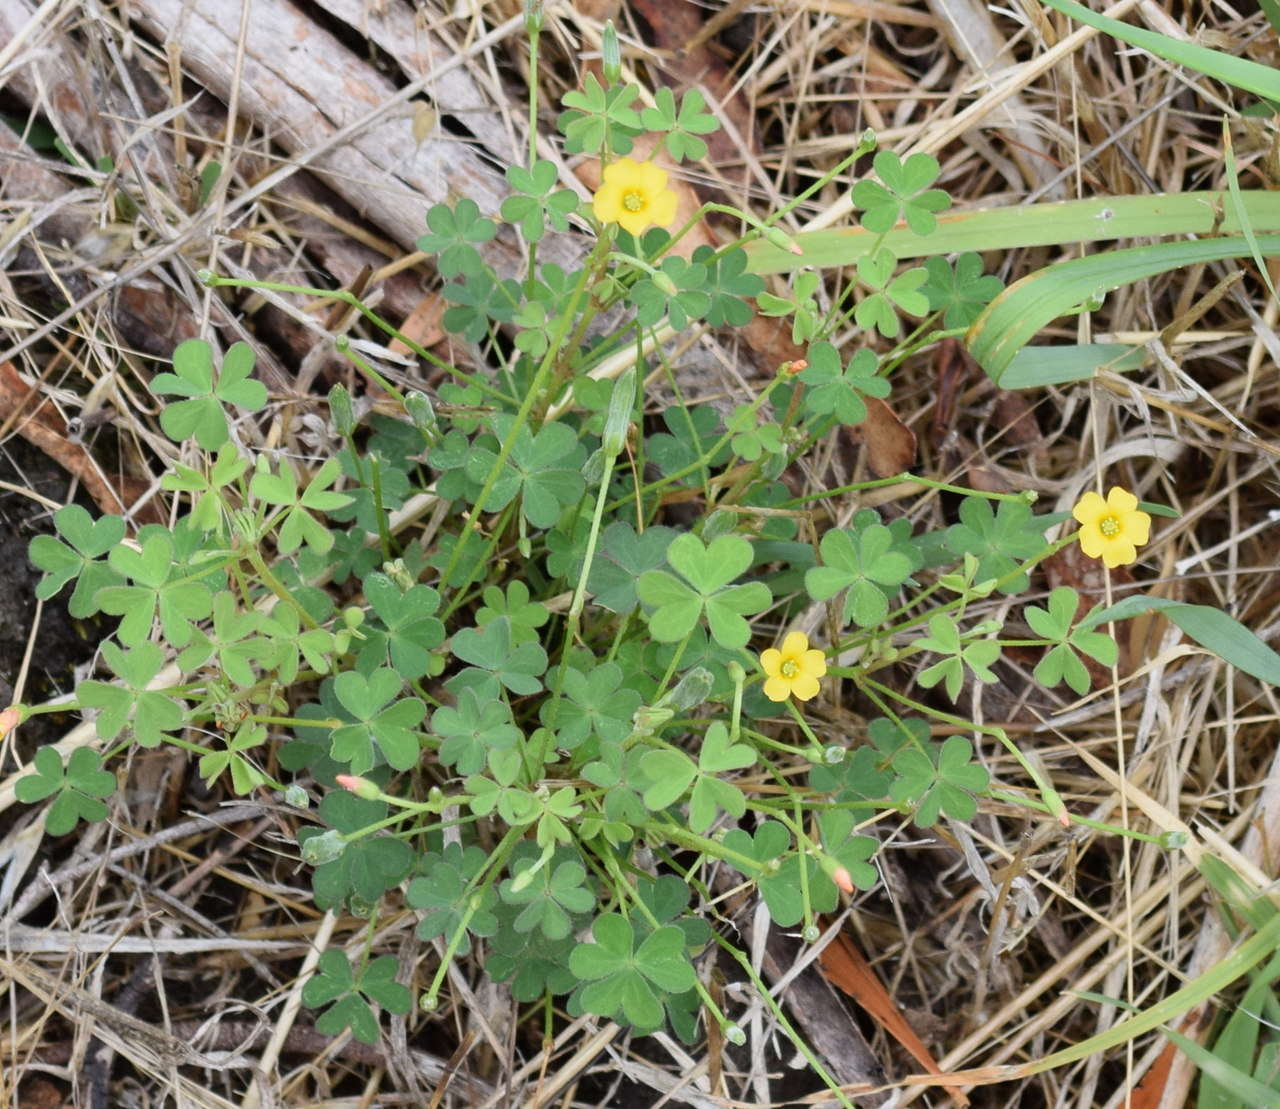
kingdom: Plantae
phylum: Tracheophyta
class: Magnoliopsida
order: Oxalidales
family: Oxalidaceae
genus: Oxalis
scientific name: Oxalis perennans
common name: Woody-rooted yellow-sorrel
